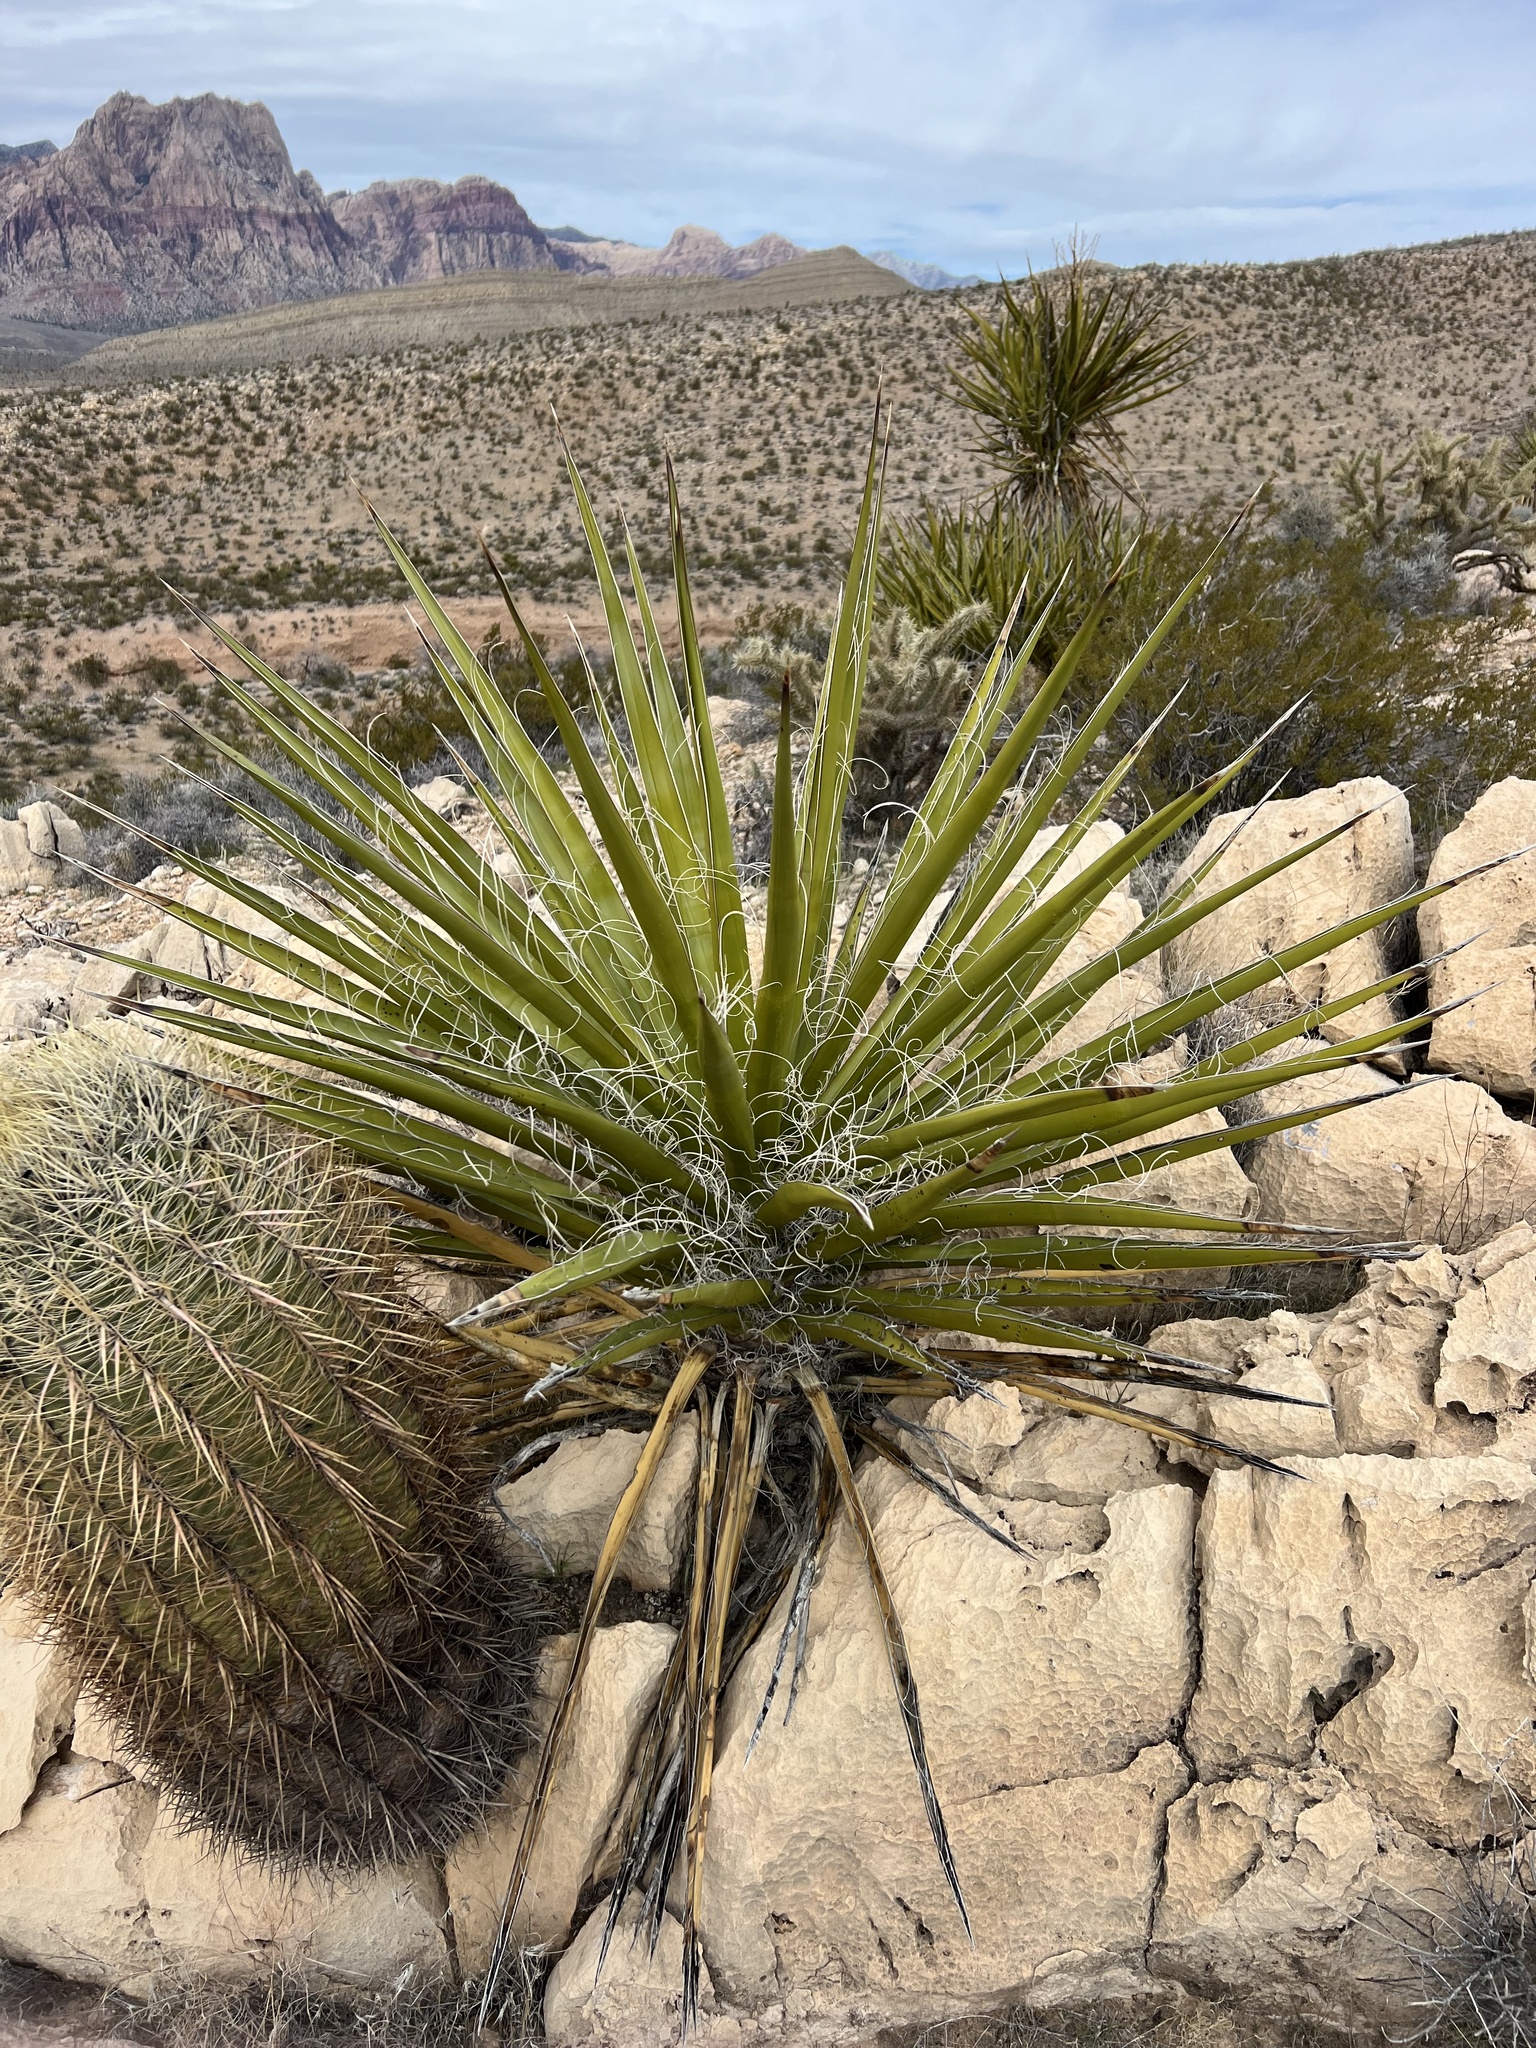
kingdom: Plantae
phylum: Tracheophyta
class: Liliopsida
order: Asparagales
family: Asparagaceae
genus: Yucca
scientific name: Yucca schidigera
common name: Mojave yucca
